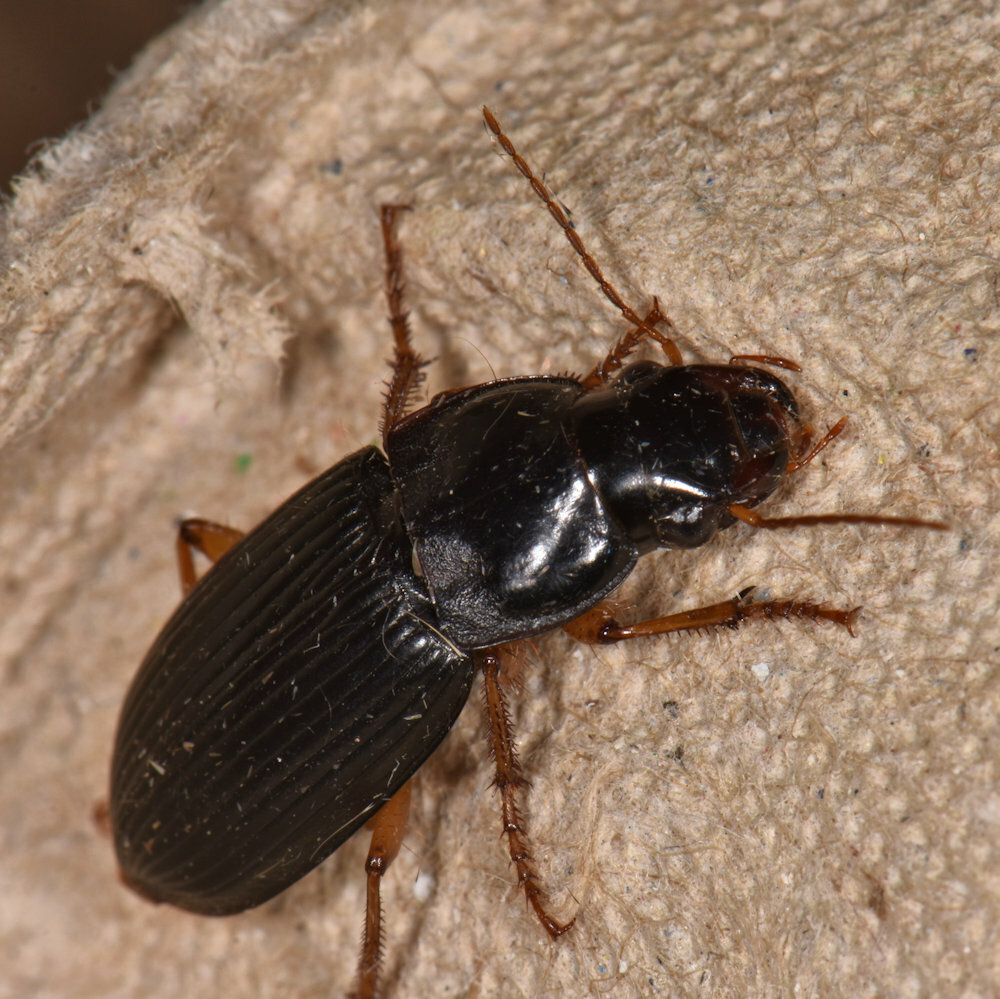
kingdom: Animalia
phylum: Arthropoda
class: Insecta
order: Coleoptera
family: Carabidae
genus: Harpalus
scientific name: Harpalus pensylvanicus
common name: Pennsylvania dingy ground beetle
